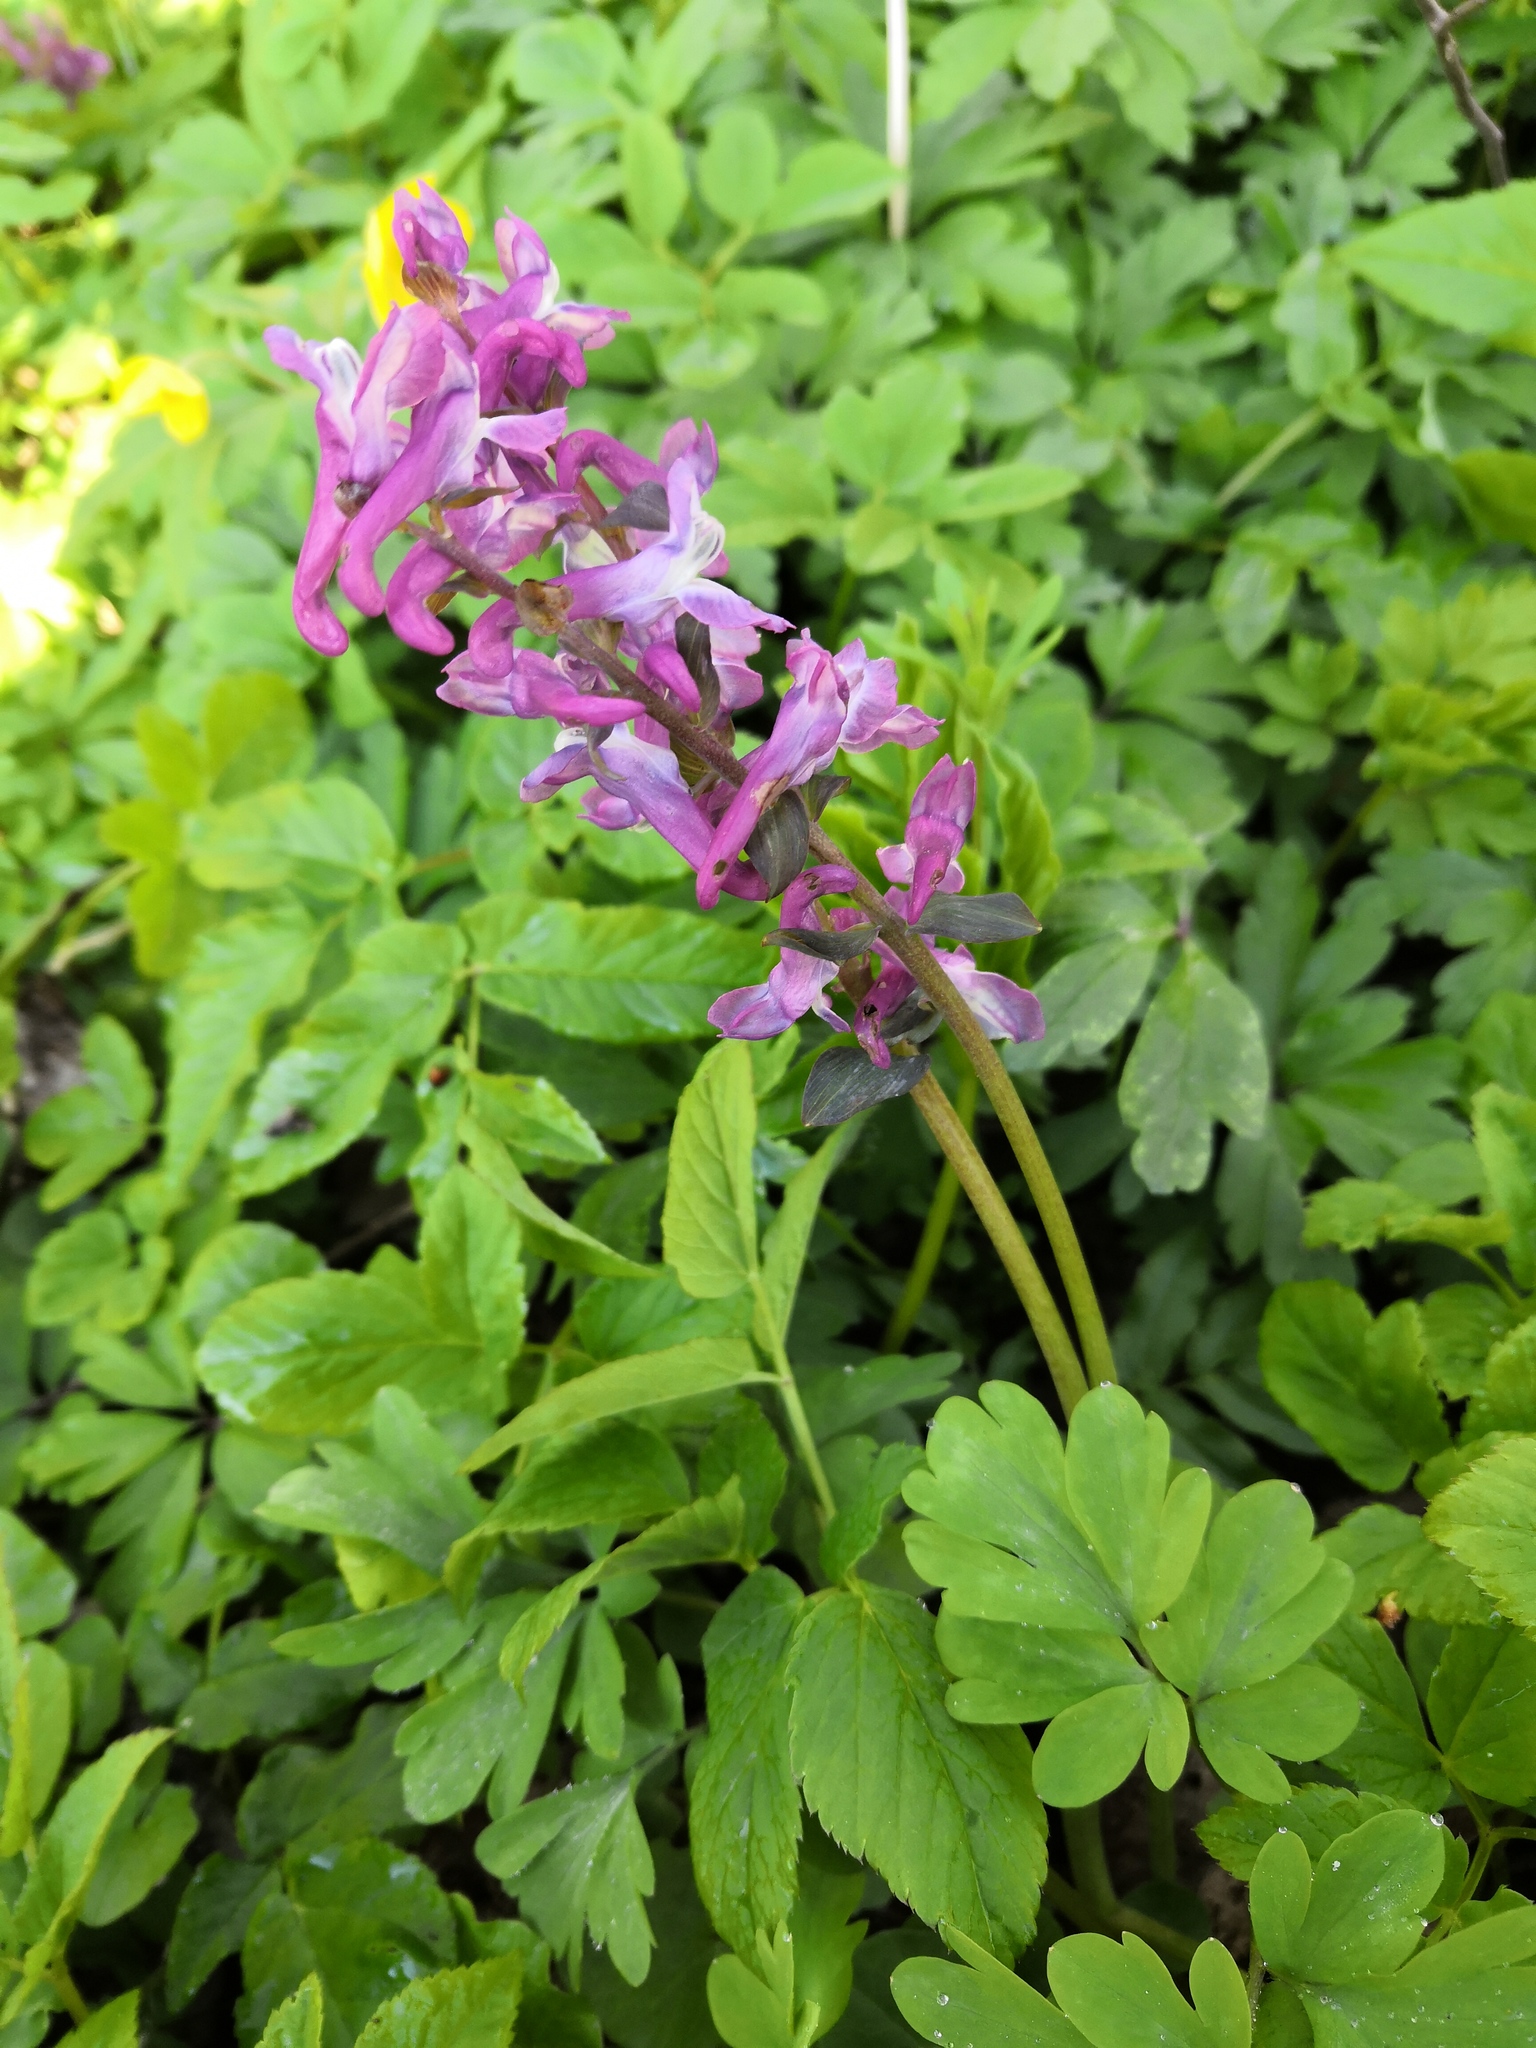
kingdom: Plantae
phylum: Tracheophyta
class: Magnoliopsida
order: Ranunculales
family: Papaveraceae
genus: Corydalis
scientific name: Corydalis cava
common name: Hollowroot
